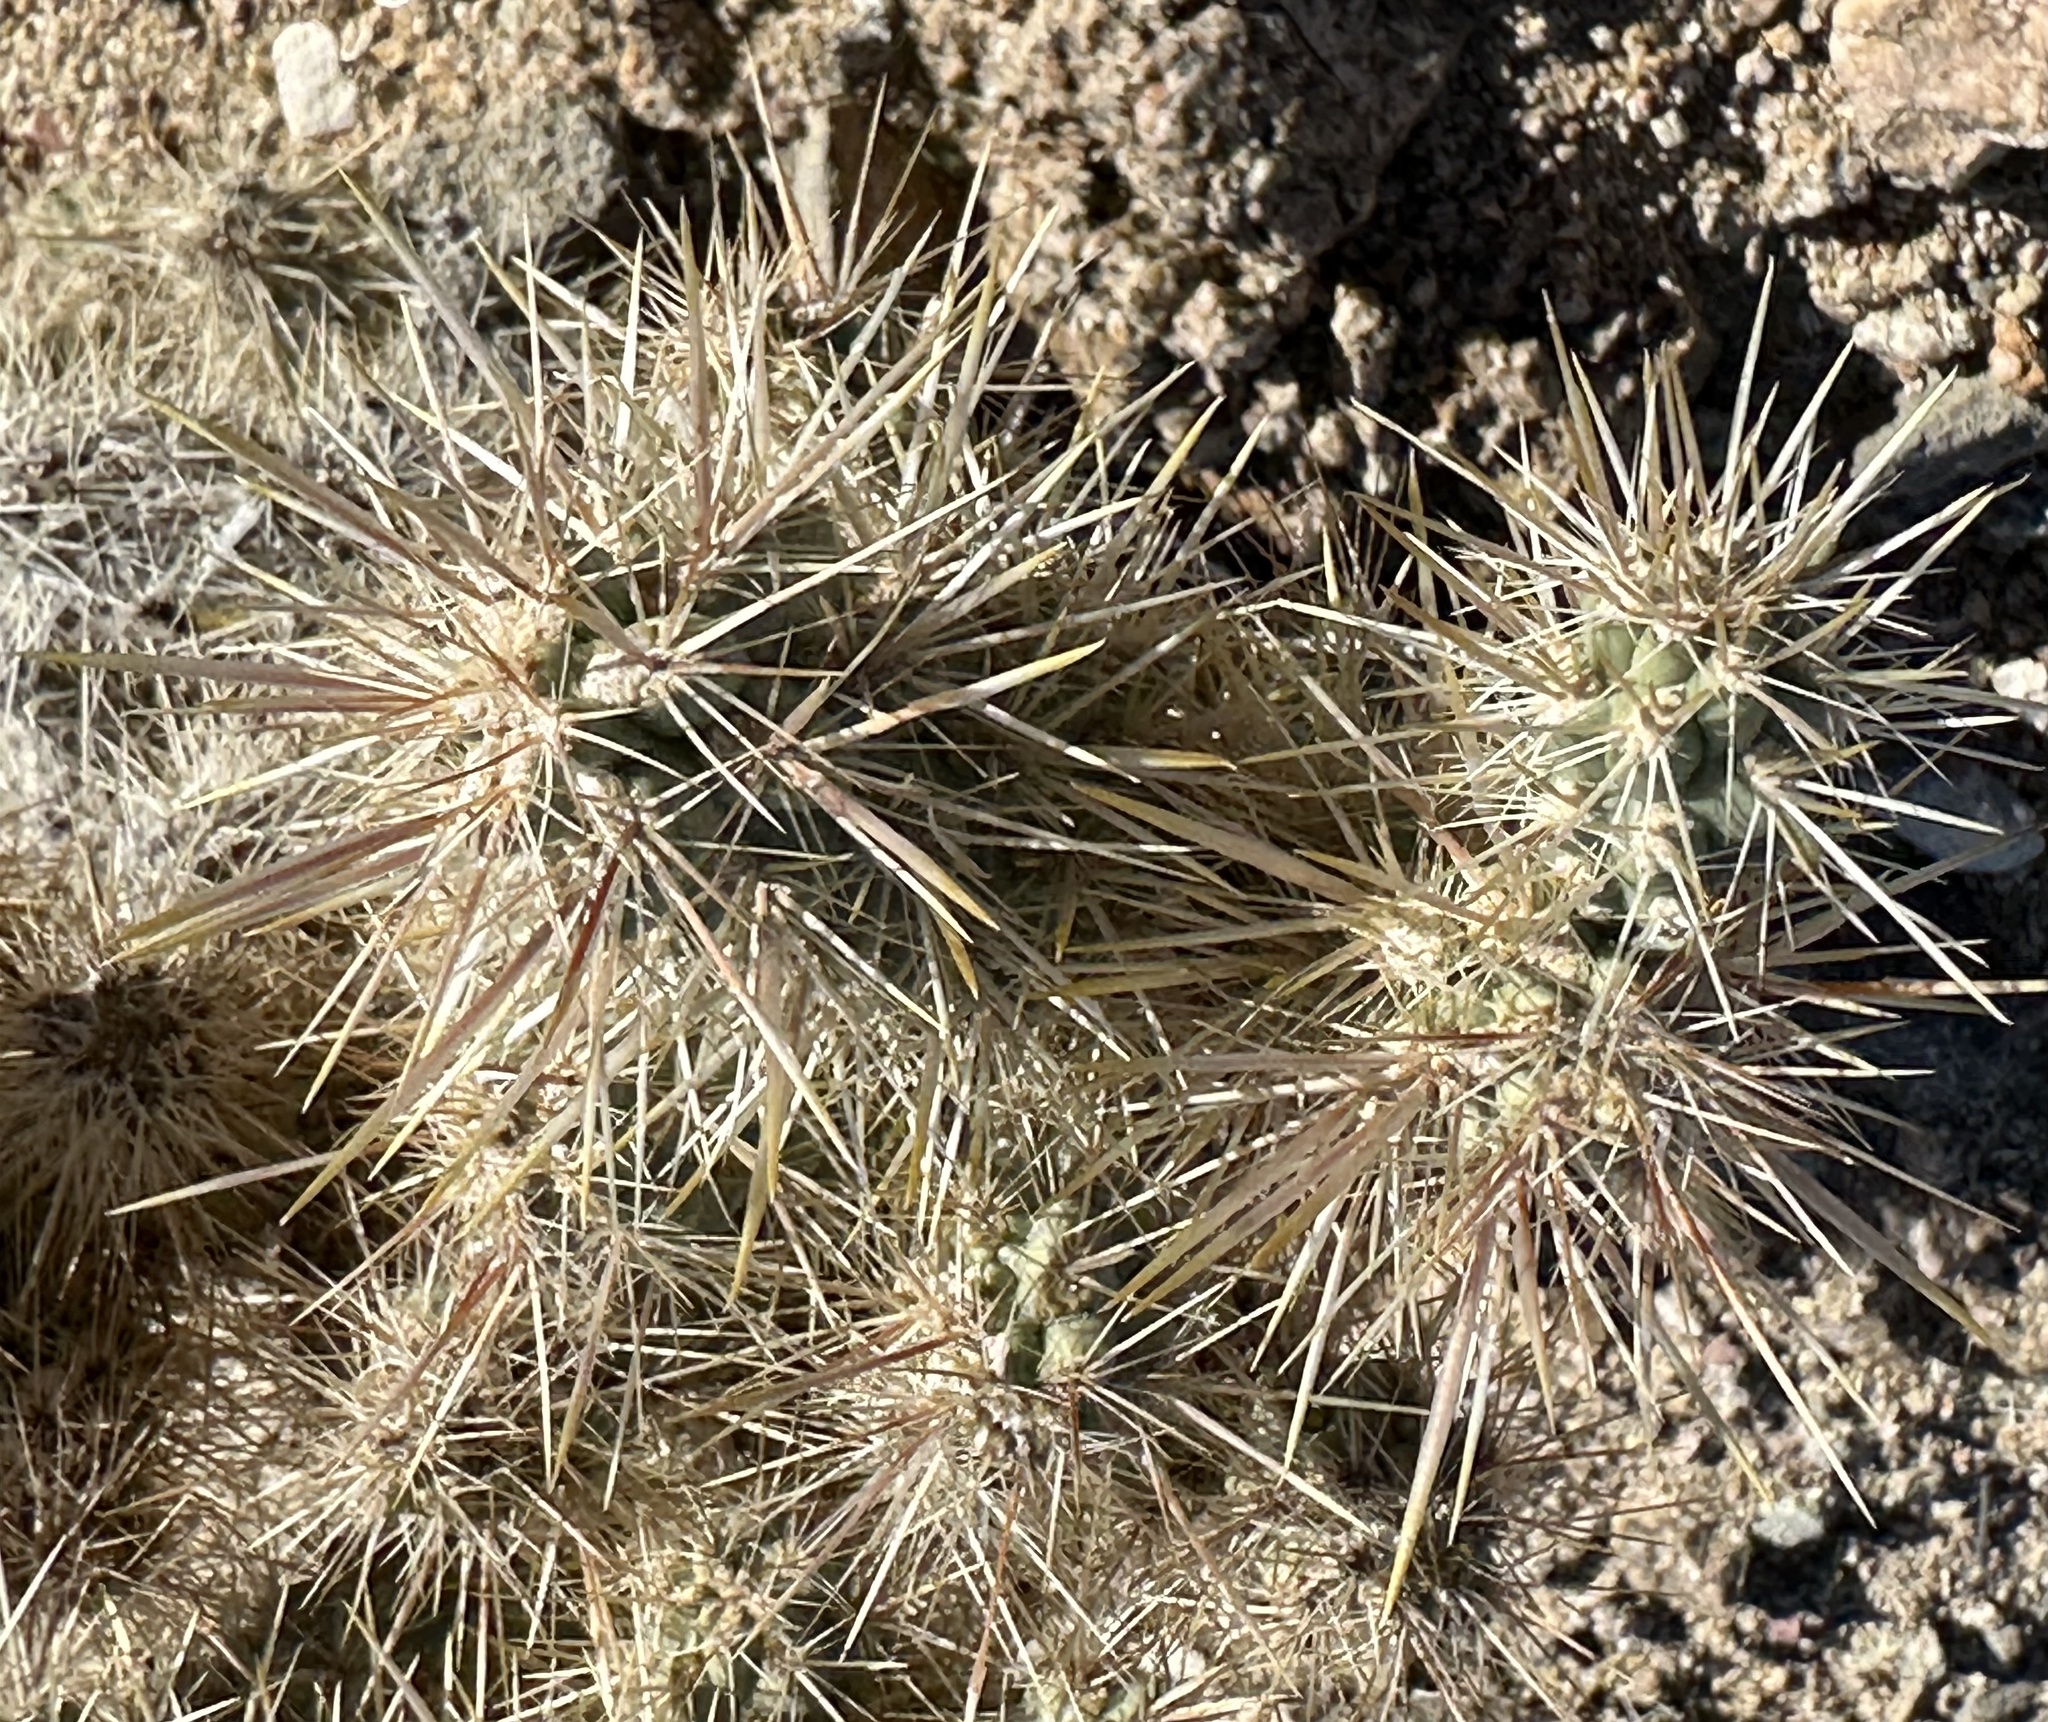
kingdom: Plantae
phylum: Tracheophyta
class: Magnoliopsida
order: Caryophyllales
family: Cactaceae
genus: Cylindropuntia
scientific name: Cylindropuntia echinocarpa
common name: Ground cholla
